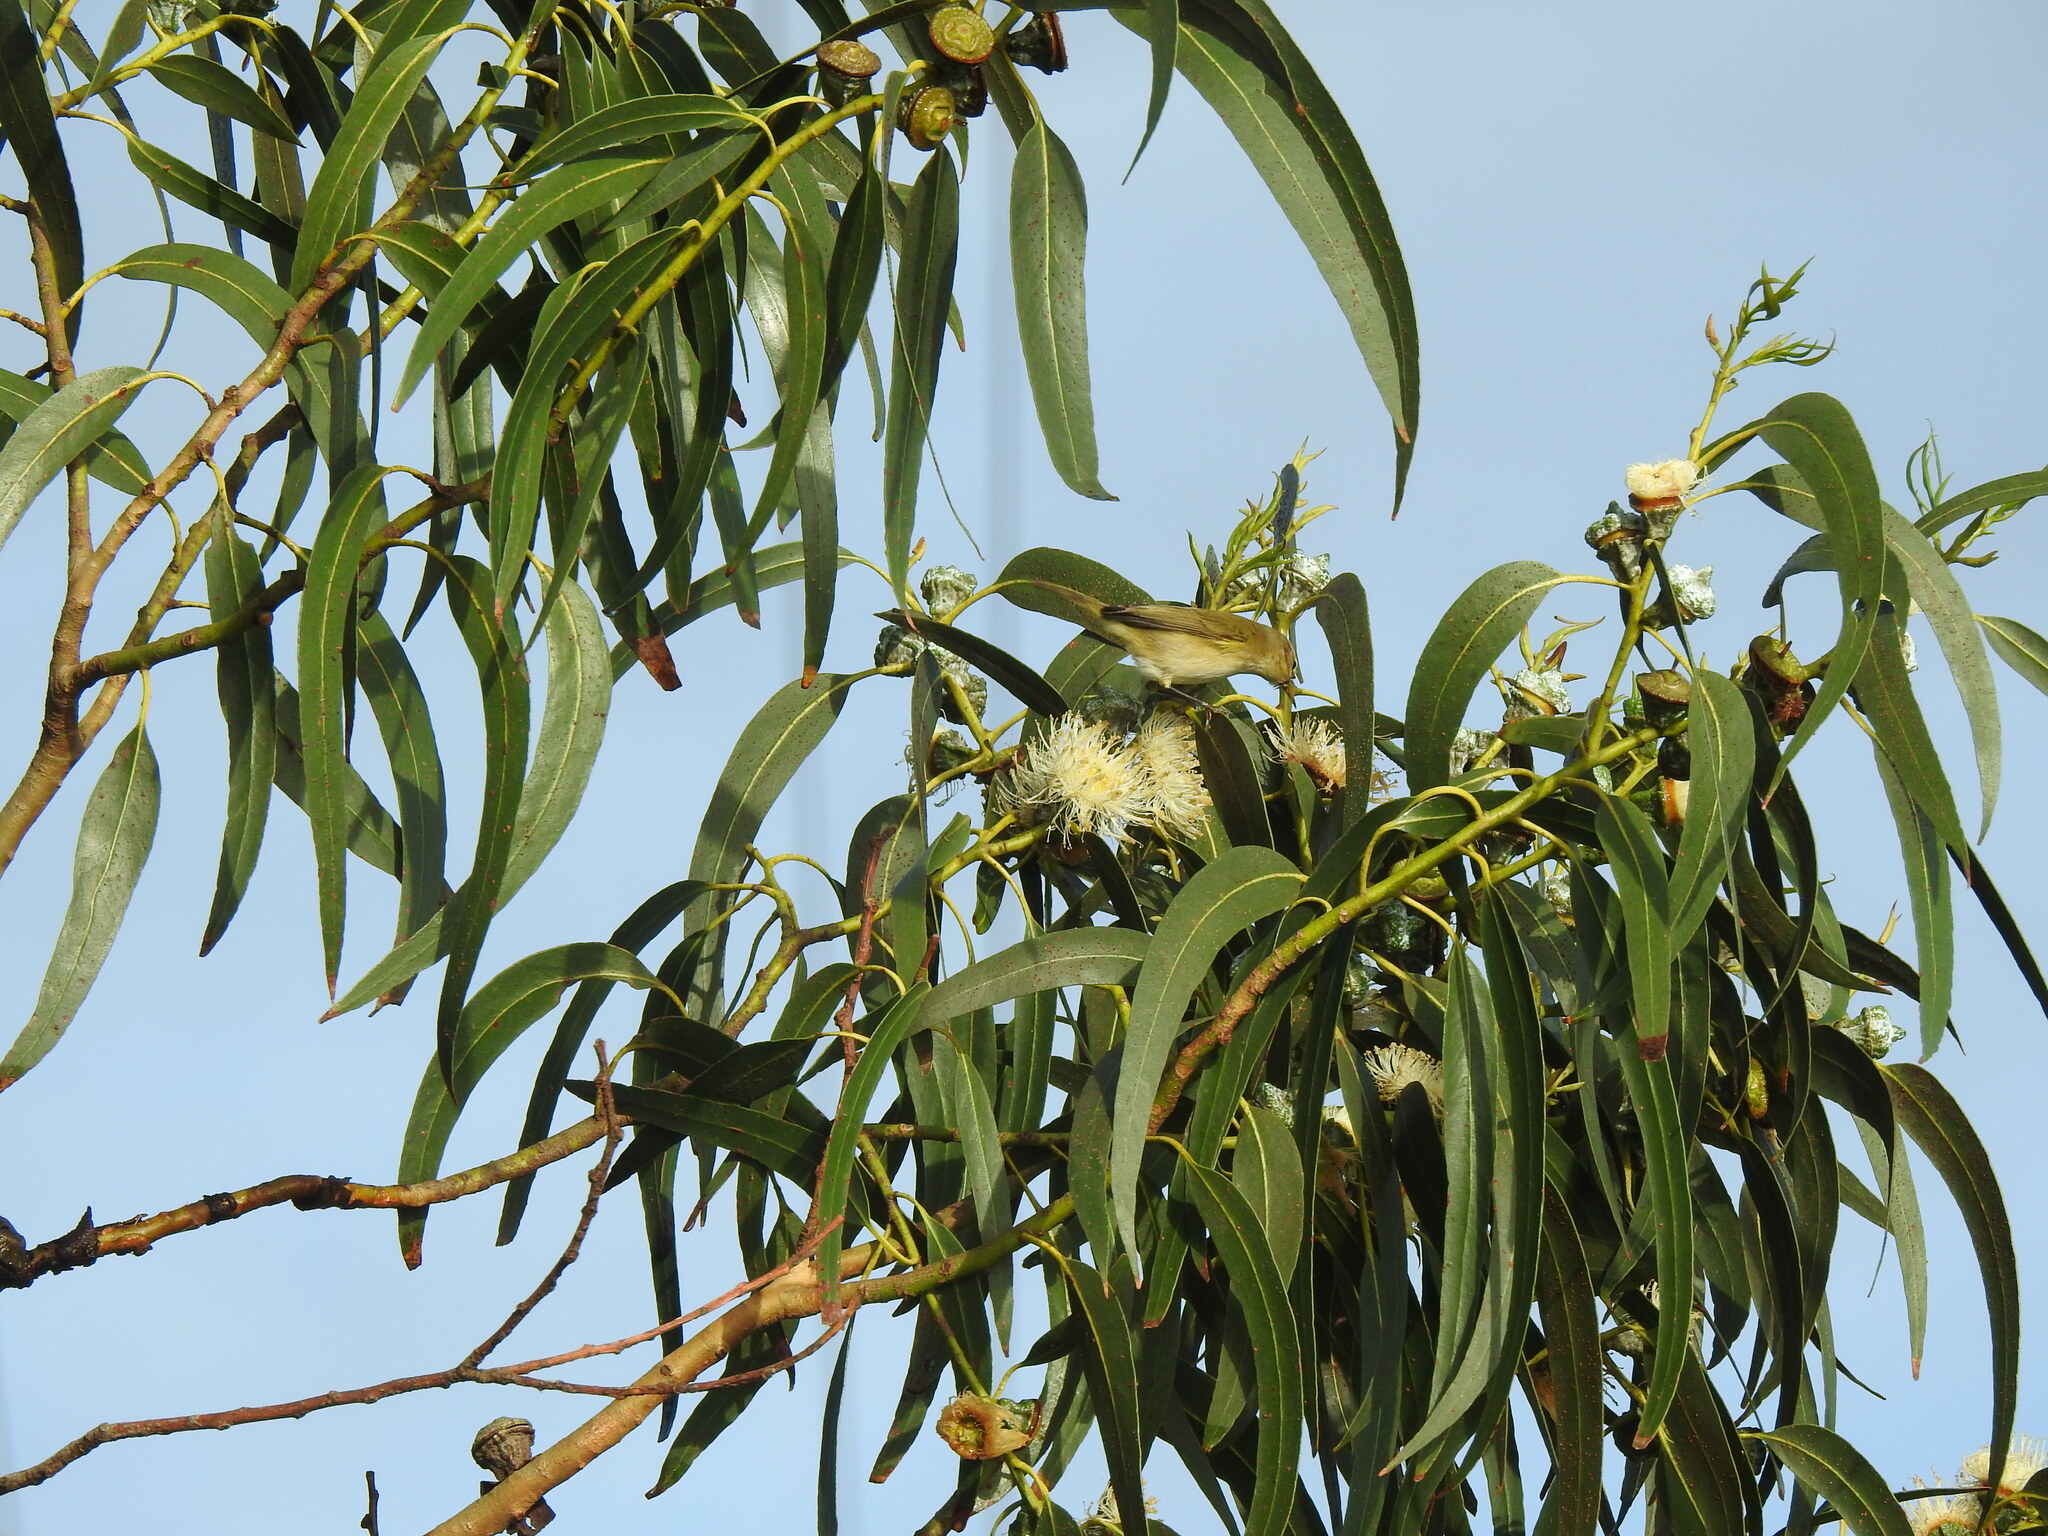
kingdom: Animalia
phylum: Chordata
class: Aves
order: Passeriformes
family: Phylloscopidae
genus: Phylloscopus
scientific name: Phylloscopus collybita
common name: Common chiffchaff
